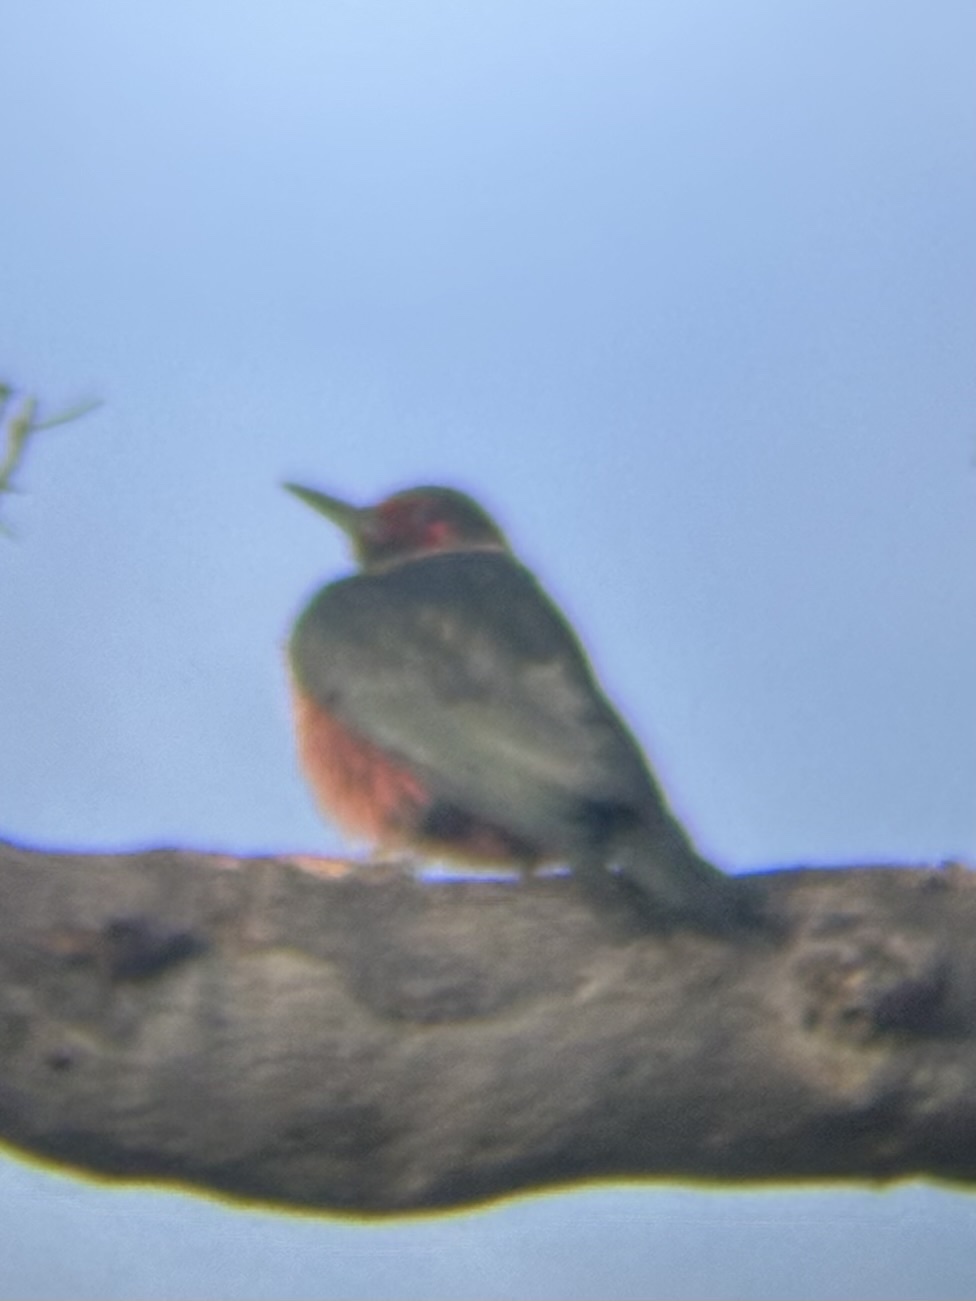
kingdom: Animalia
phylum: Chordata
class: Aves
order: Piciformes
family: Picidae
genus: Melanerpes
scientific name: Melanerpes lewis
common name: Lewis's woodpecker
